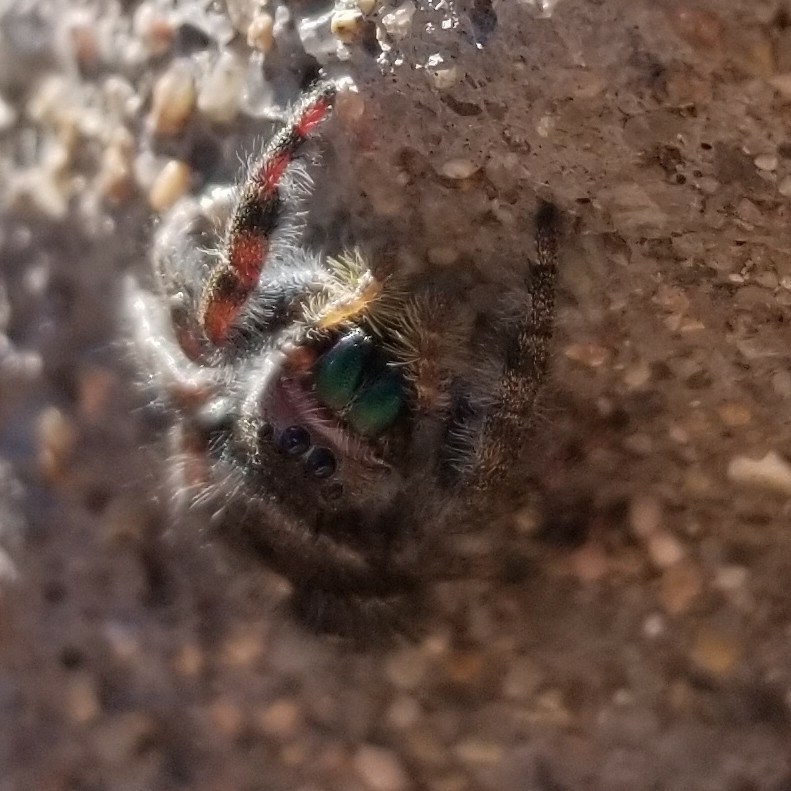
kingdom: Animalia
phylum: Arthropoda
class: Arachnida
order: Araneae
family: Salticidae
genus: Phidippus
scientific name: Phidippus audax
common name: Bold jumper
